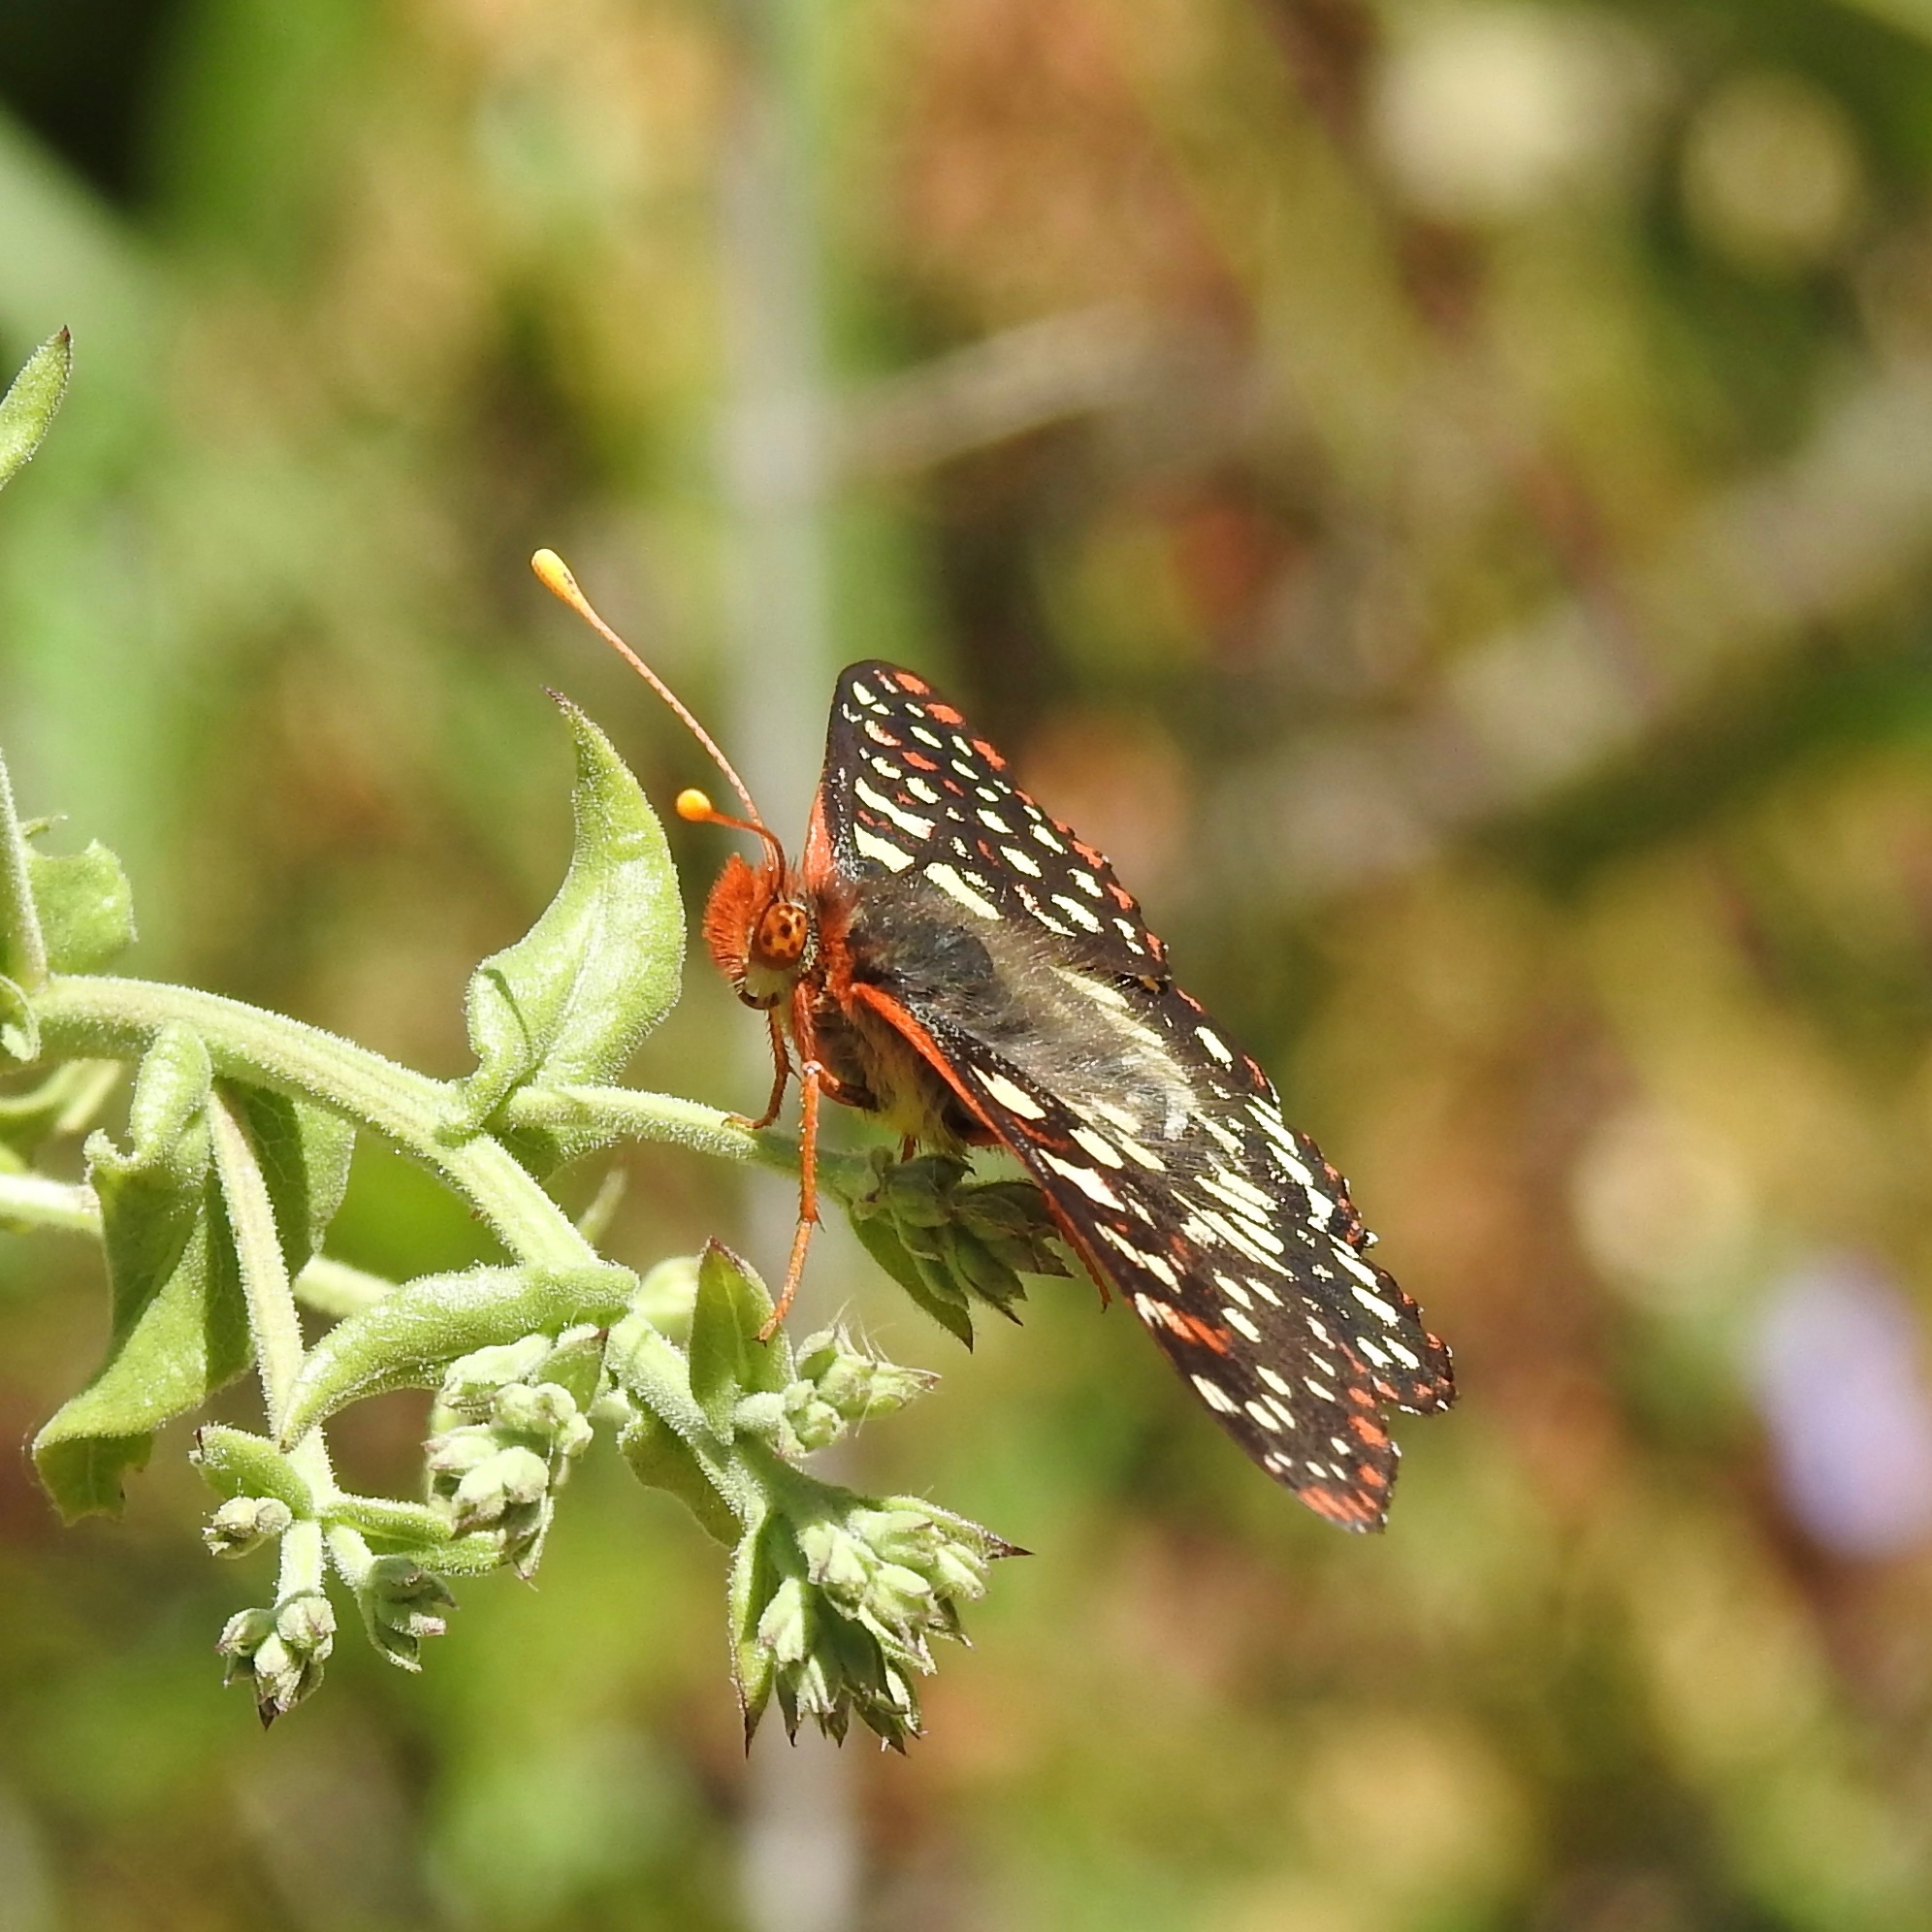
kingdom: Animalia
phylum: Arthropoda
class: Insecta
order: Lepidoptera
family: Nymphalidae
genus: Occidryas
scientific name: Occidryas chalcedona
